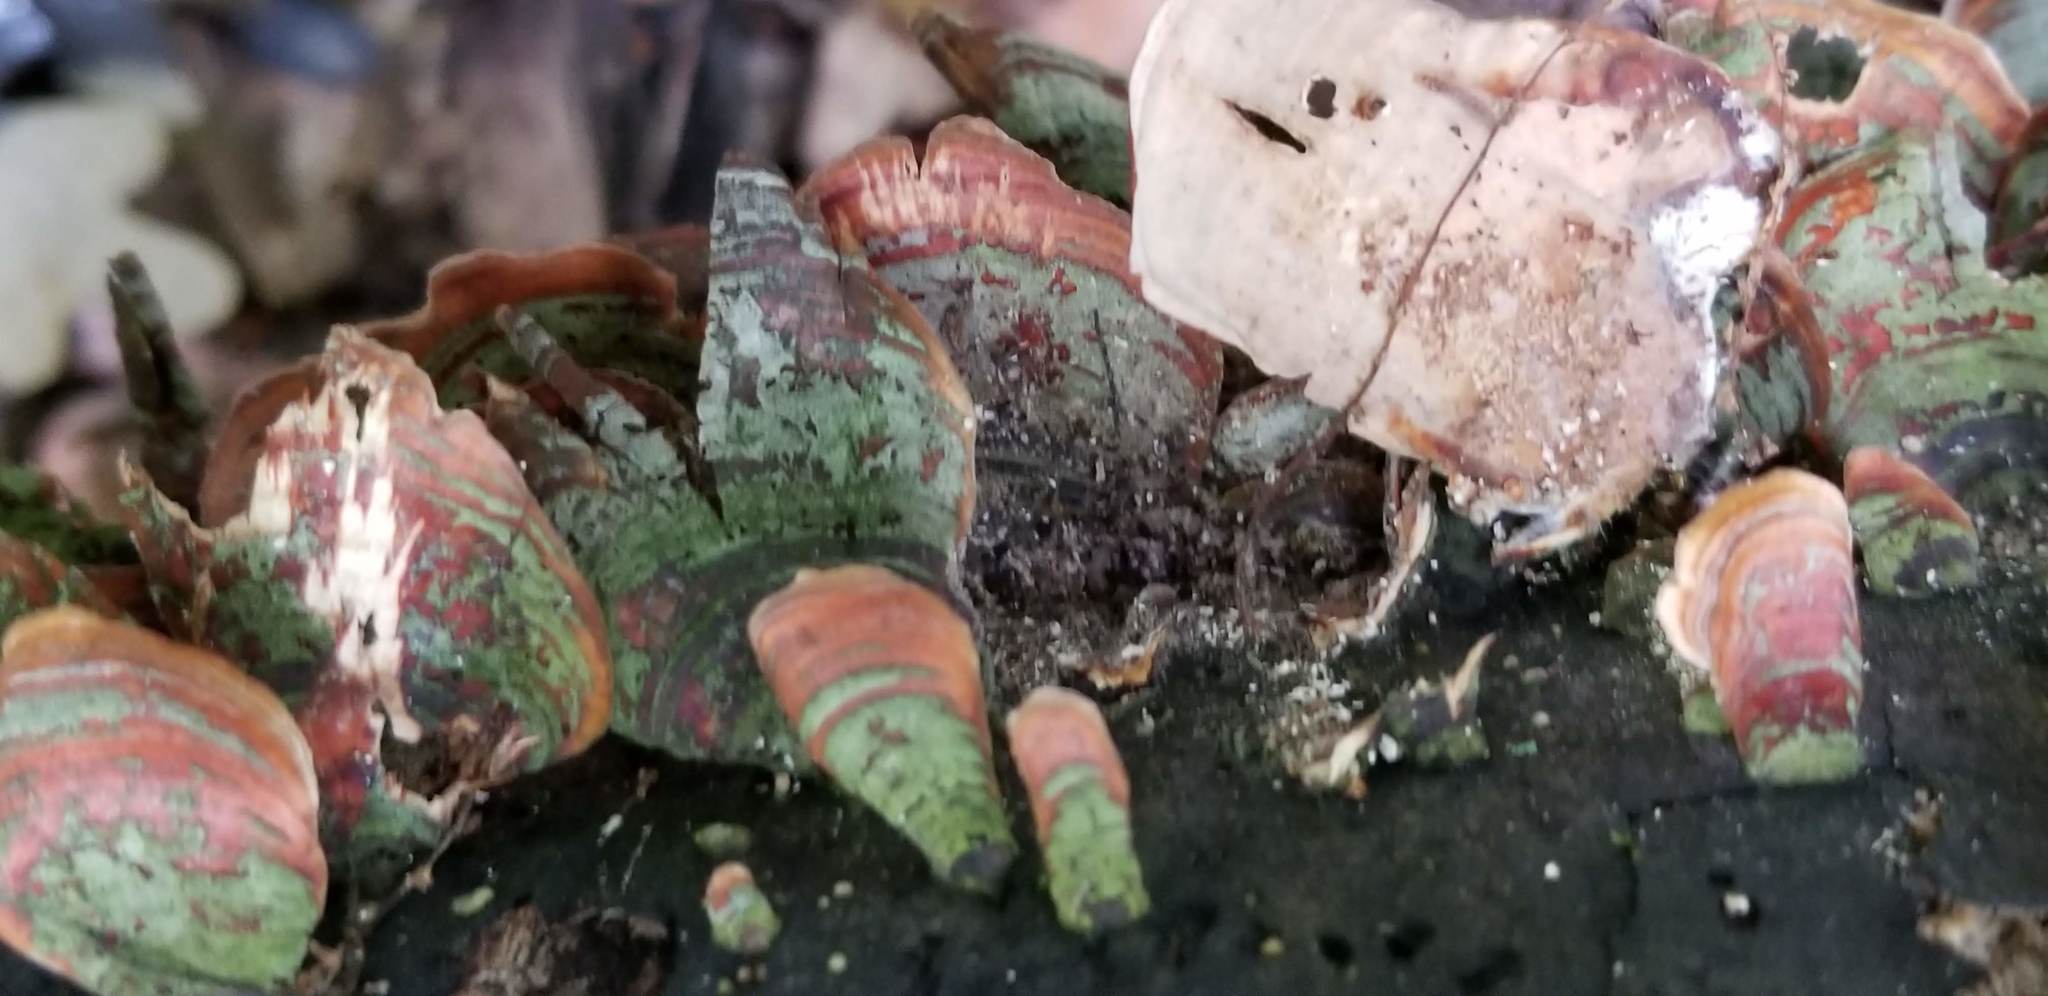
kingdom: Fungi
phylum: Basidiomycota
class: Agaricomycetes
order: Russulales
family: Stereaceae
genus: Stereum
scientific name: Stereum ostrea
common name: False turkeytail
